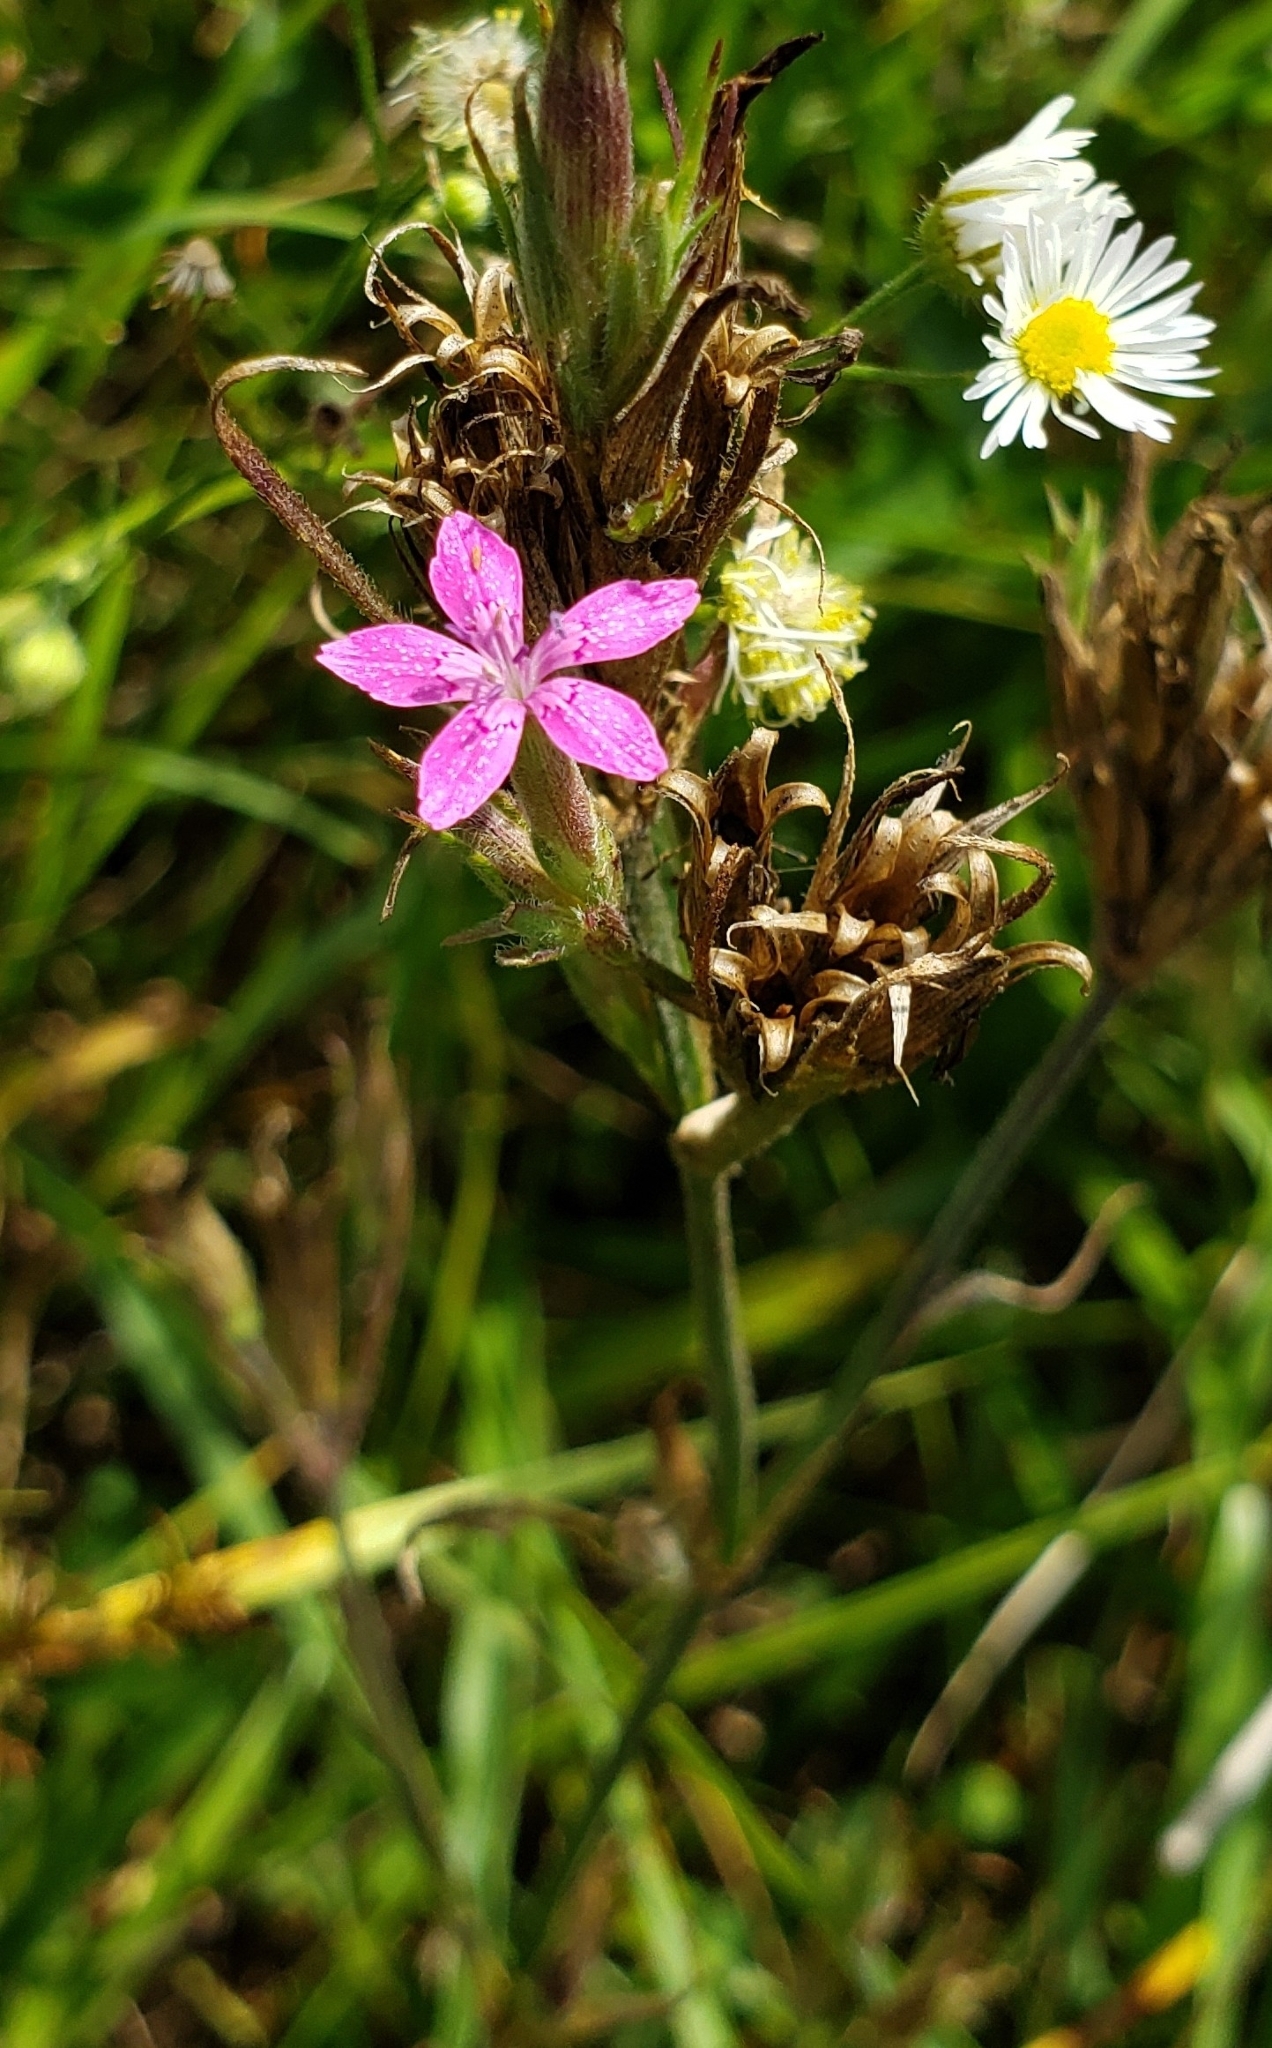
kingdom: Plantae
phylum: Tracheophyta
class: Magnoliopsida
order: Caryophyllales
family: Caryophyllaceae
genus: Dianthus
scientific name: Dianthus armeria
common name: Deptford pink
